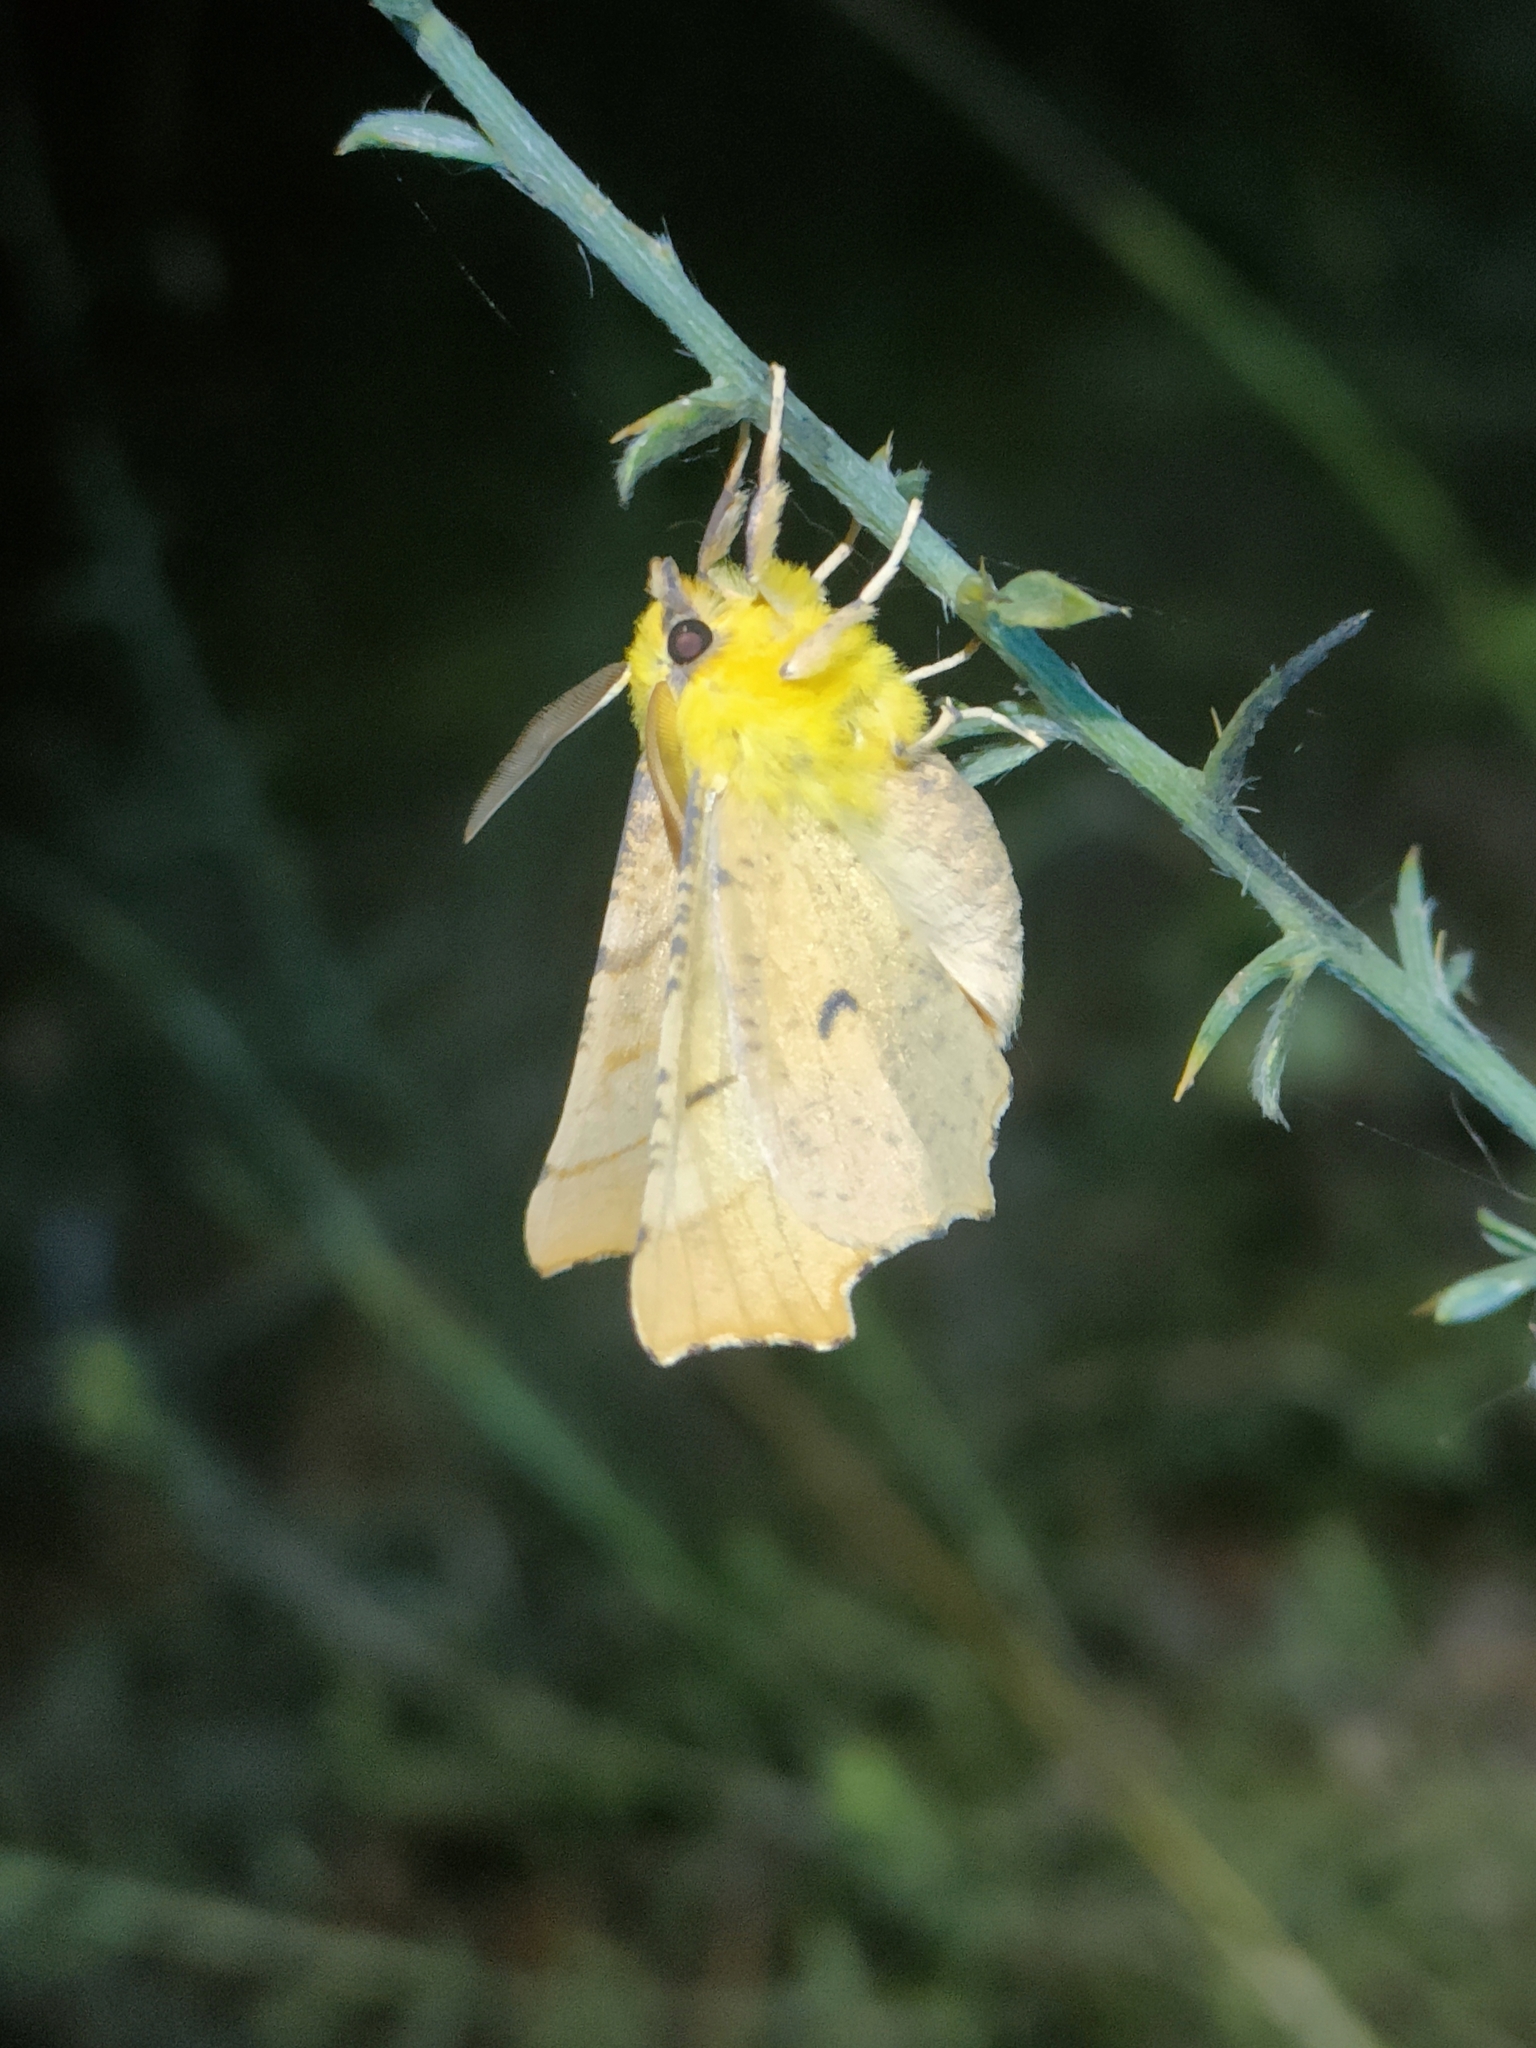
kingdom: Animalia
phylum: Arthropoda
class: Insecta
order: Lepidoptera
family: Geometridae
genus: Ennomos
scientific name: Ennomos alniaria
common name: Canary-shouldered thorn
